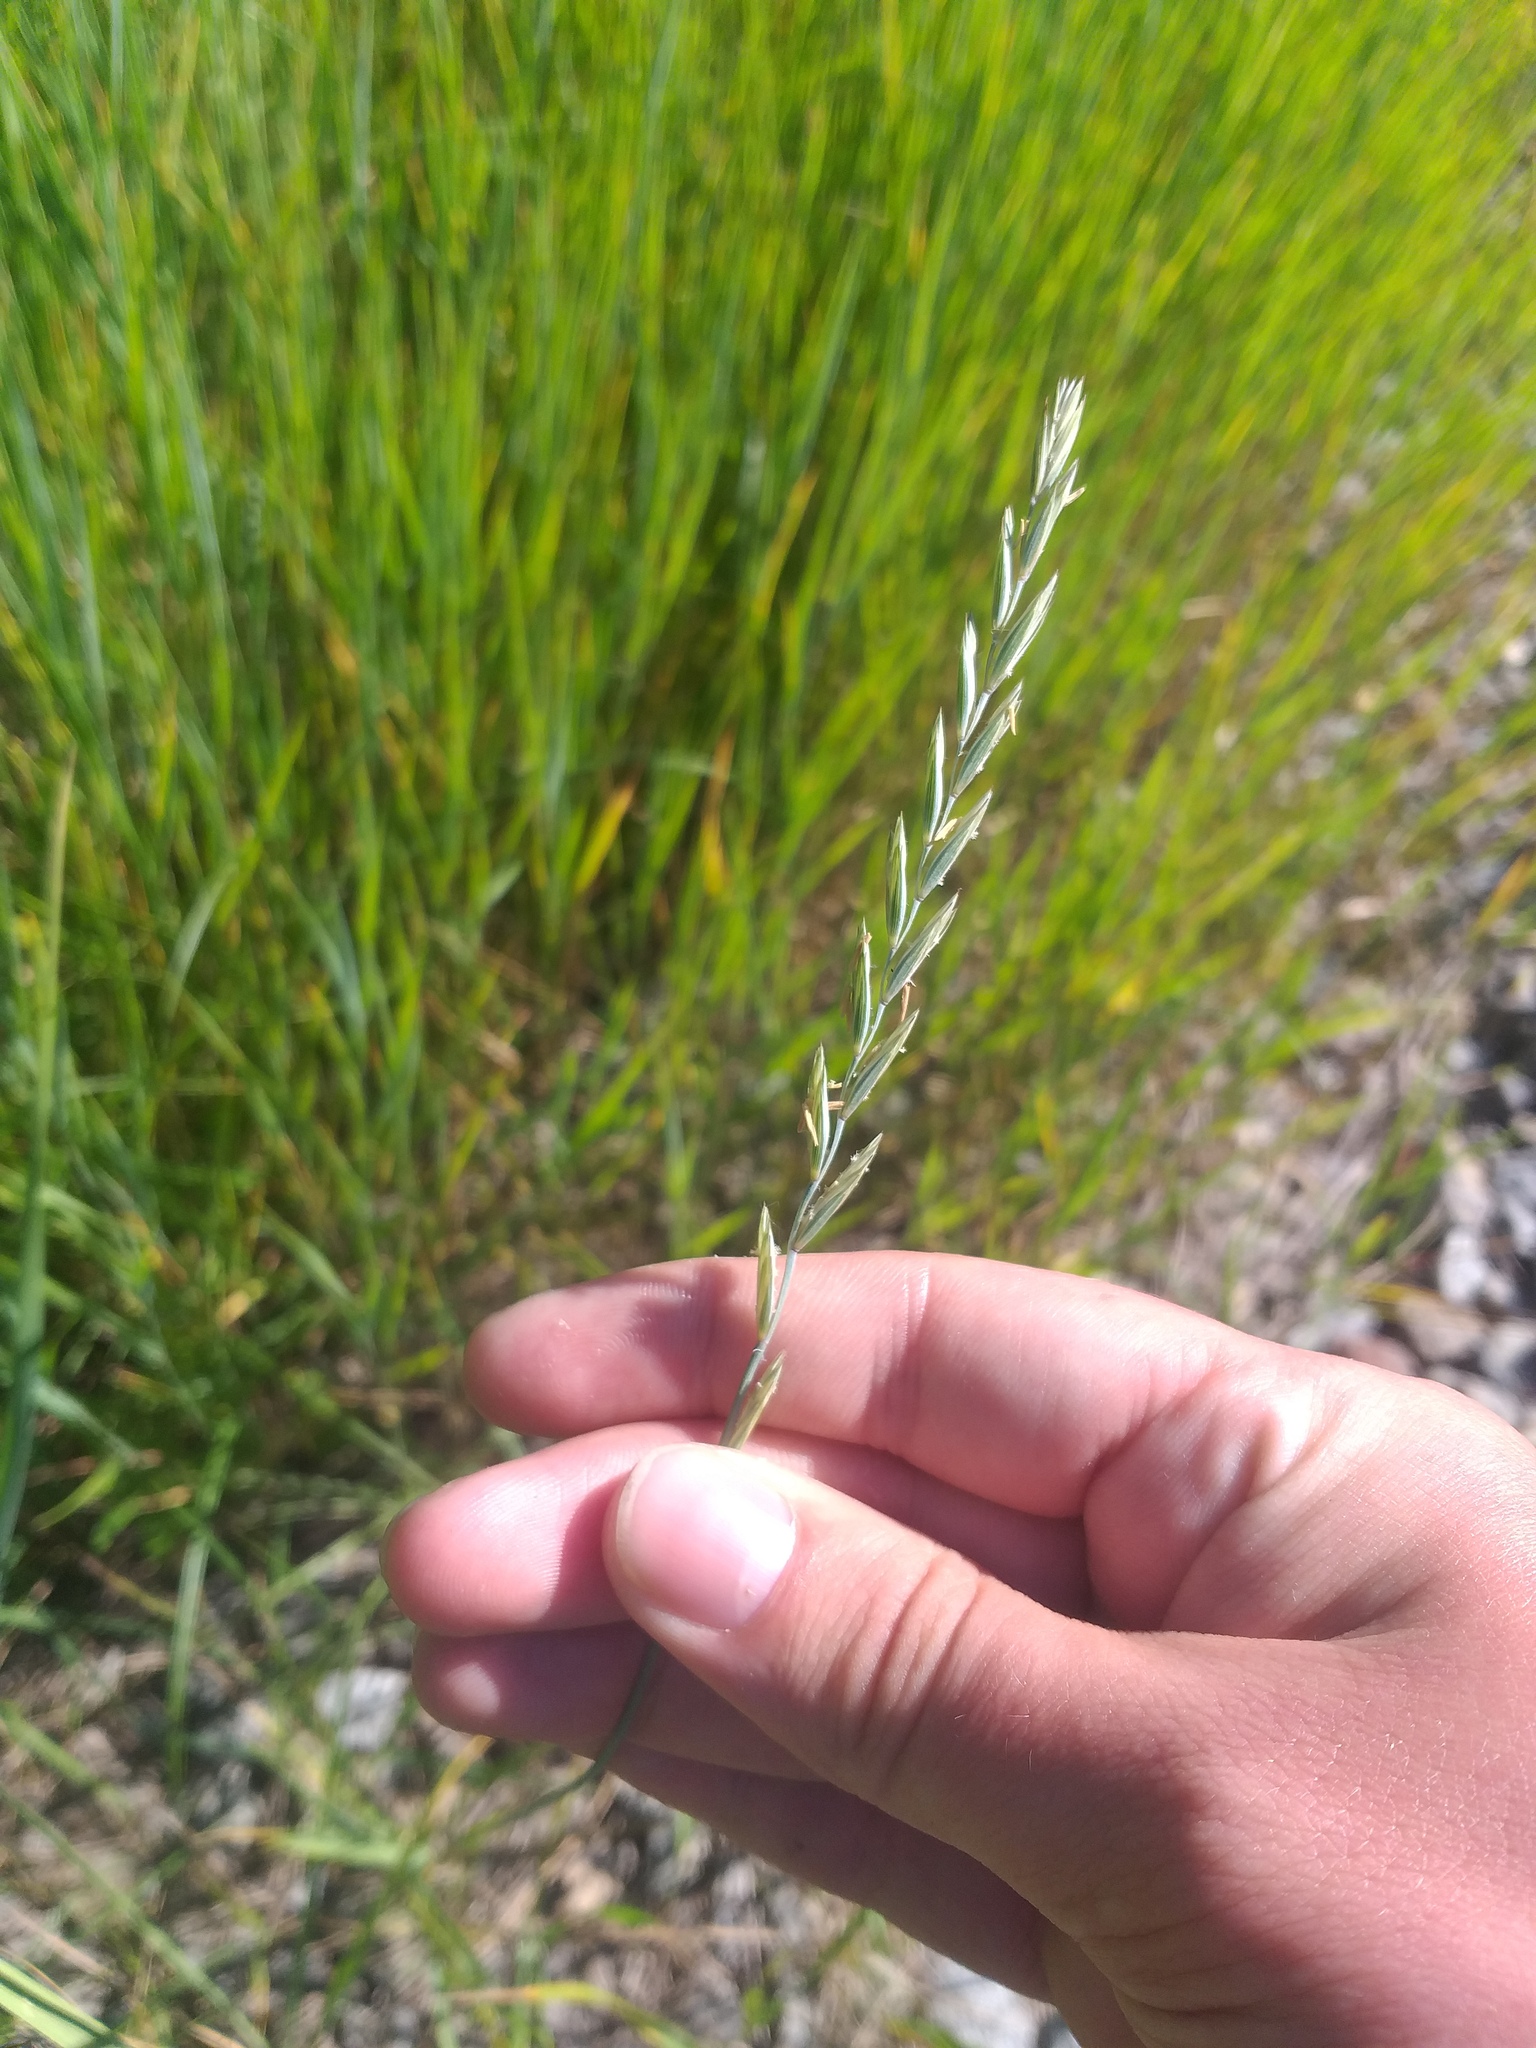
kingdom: Plantae
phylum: Tracheophyta
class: Liliopsida
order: Poales
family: Poaceae
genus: Elymus
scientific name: Elymus repens
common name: Quackgrass
